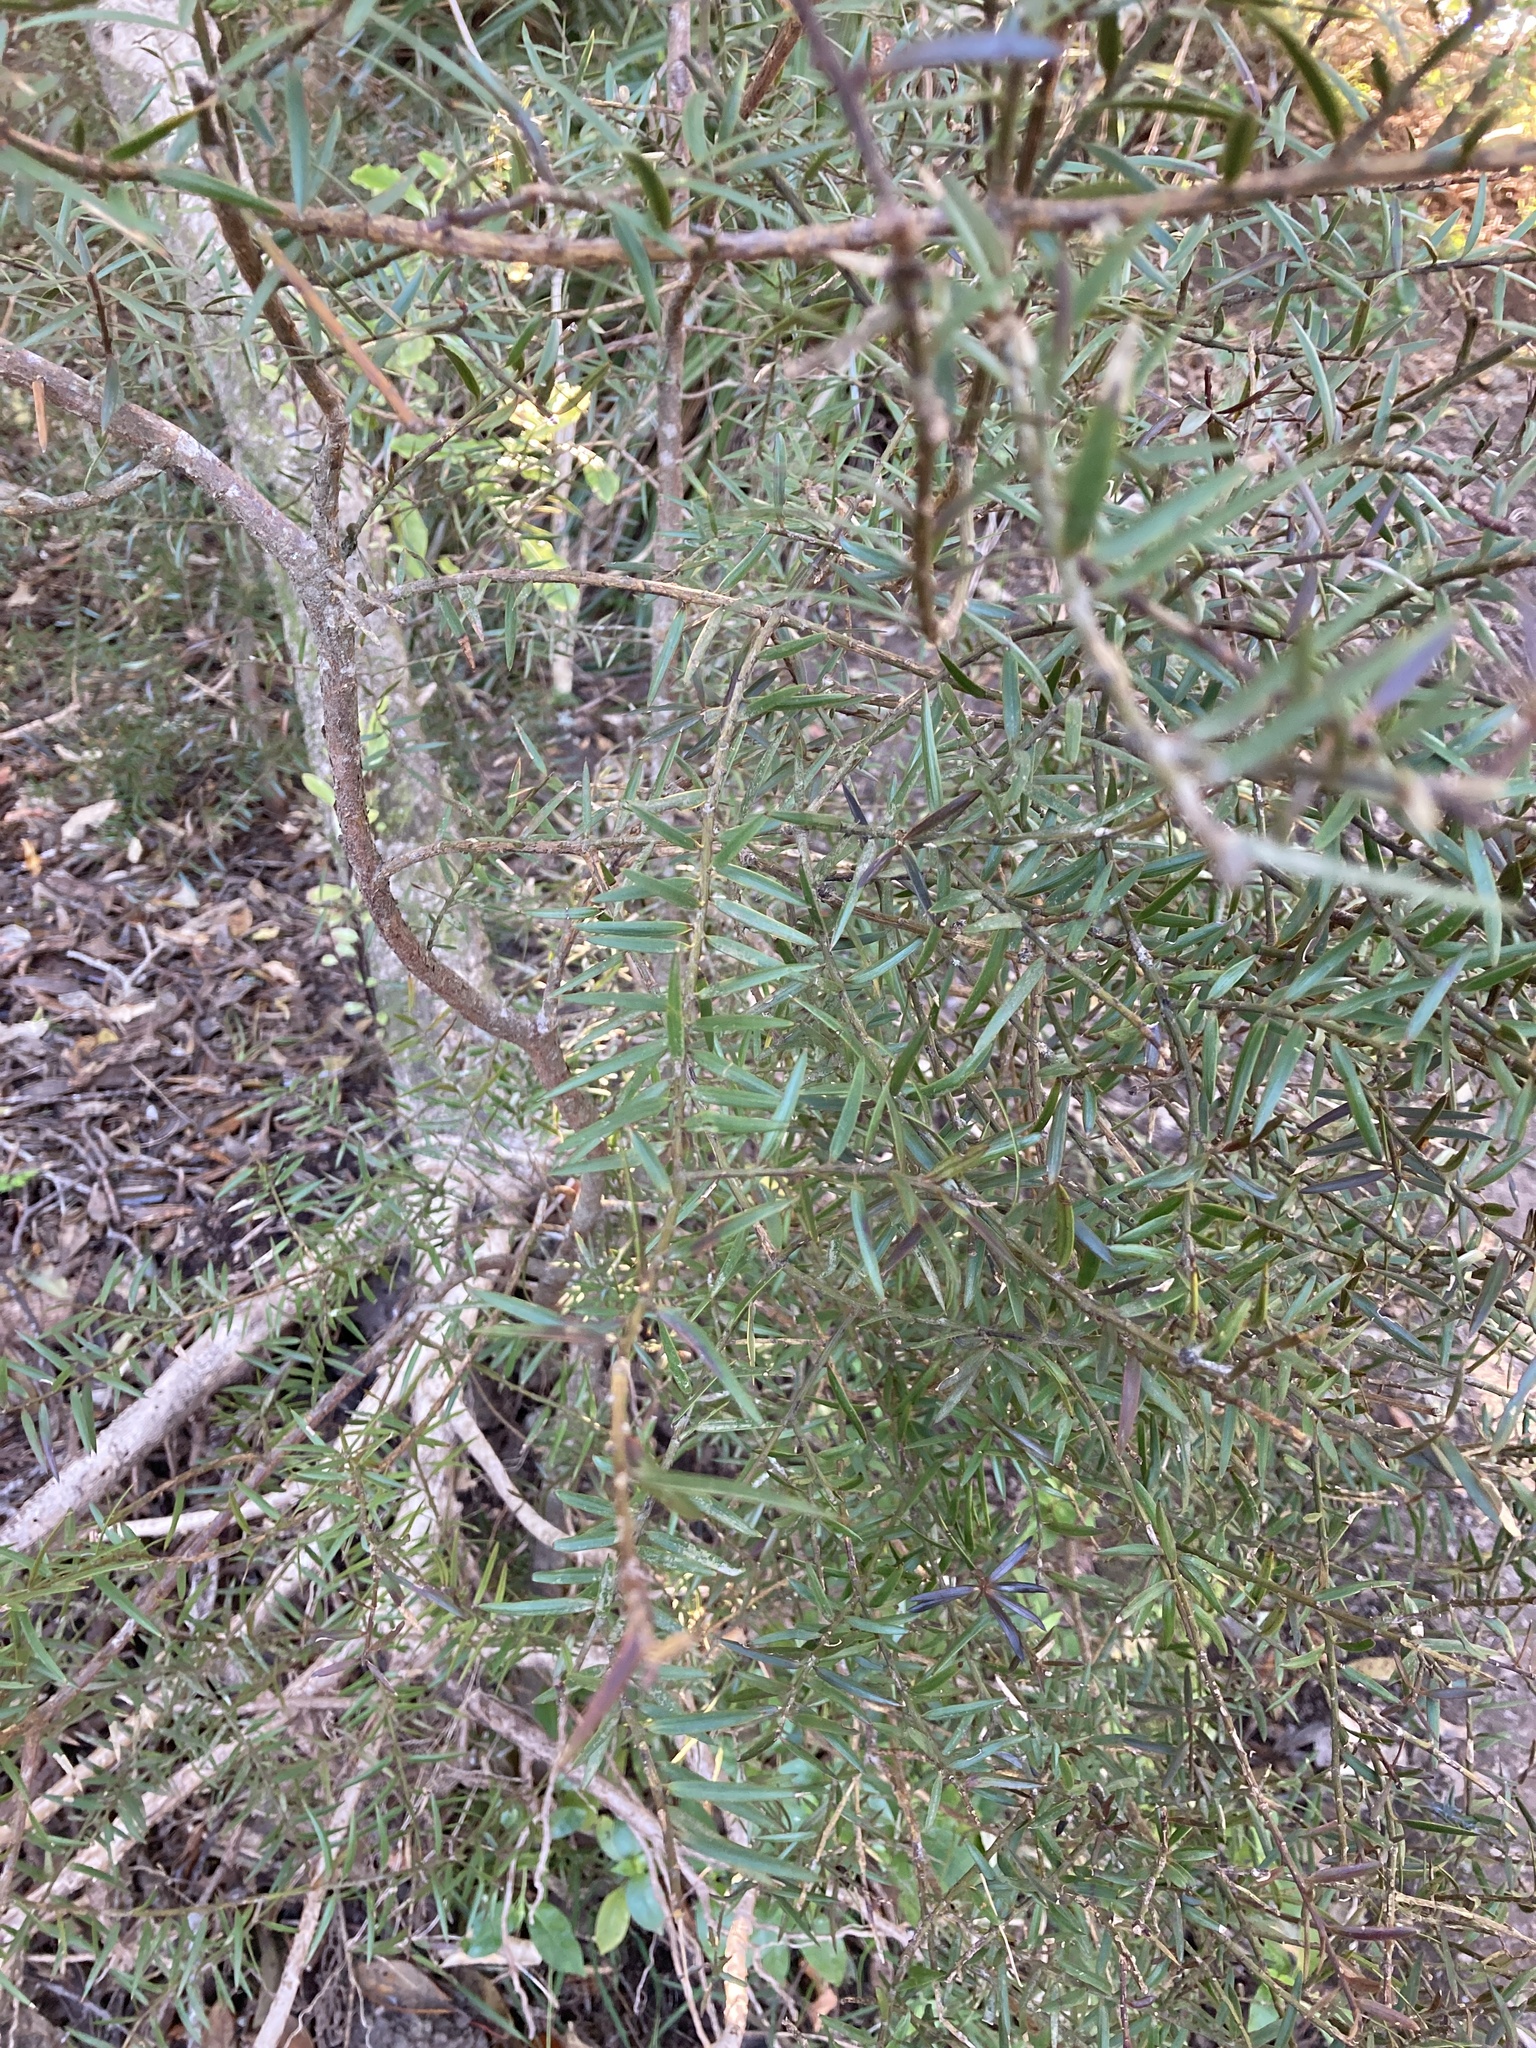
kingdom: Plantae
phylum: Tracheophyta
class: Pinopsida
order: Pinales
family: Podocarpaceae
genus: Podocarpus
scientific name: Podocarpus totara
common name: Totara
